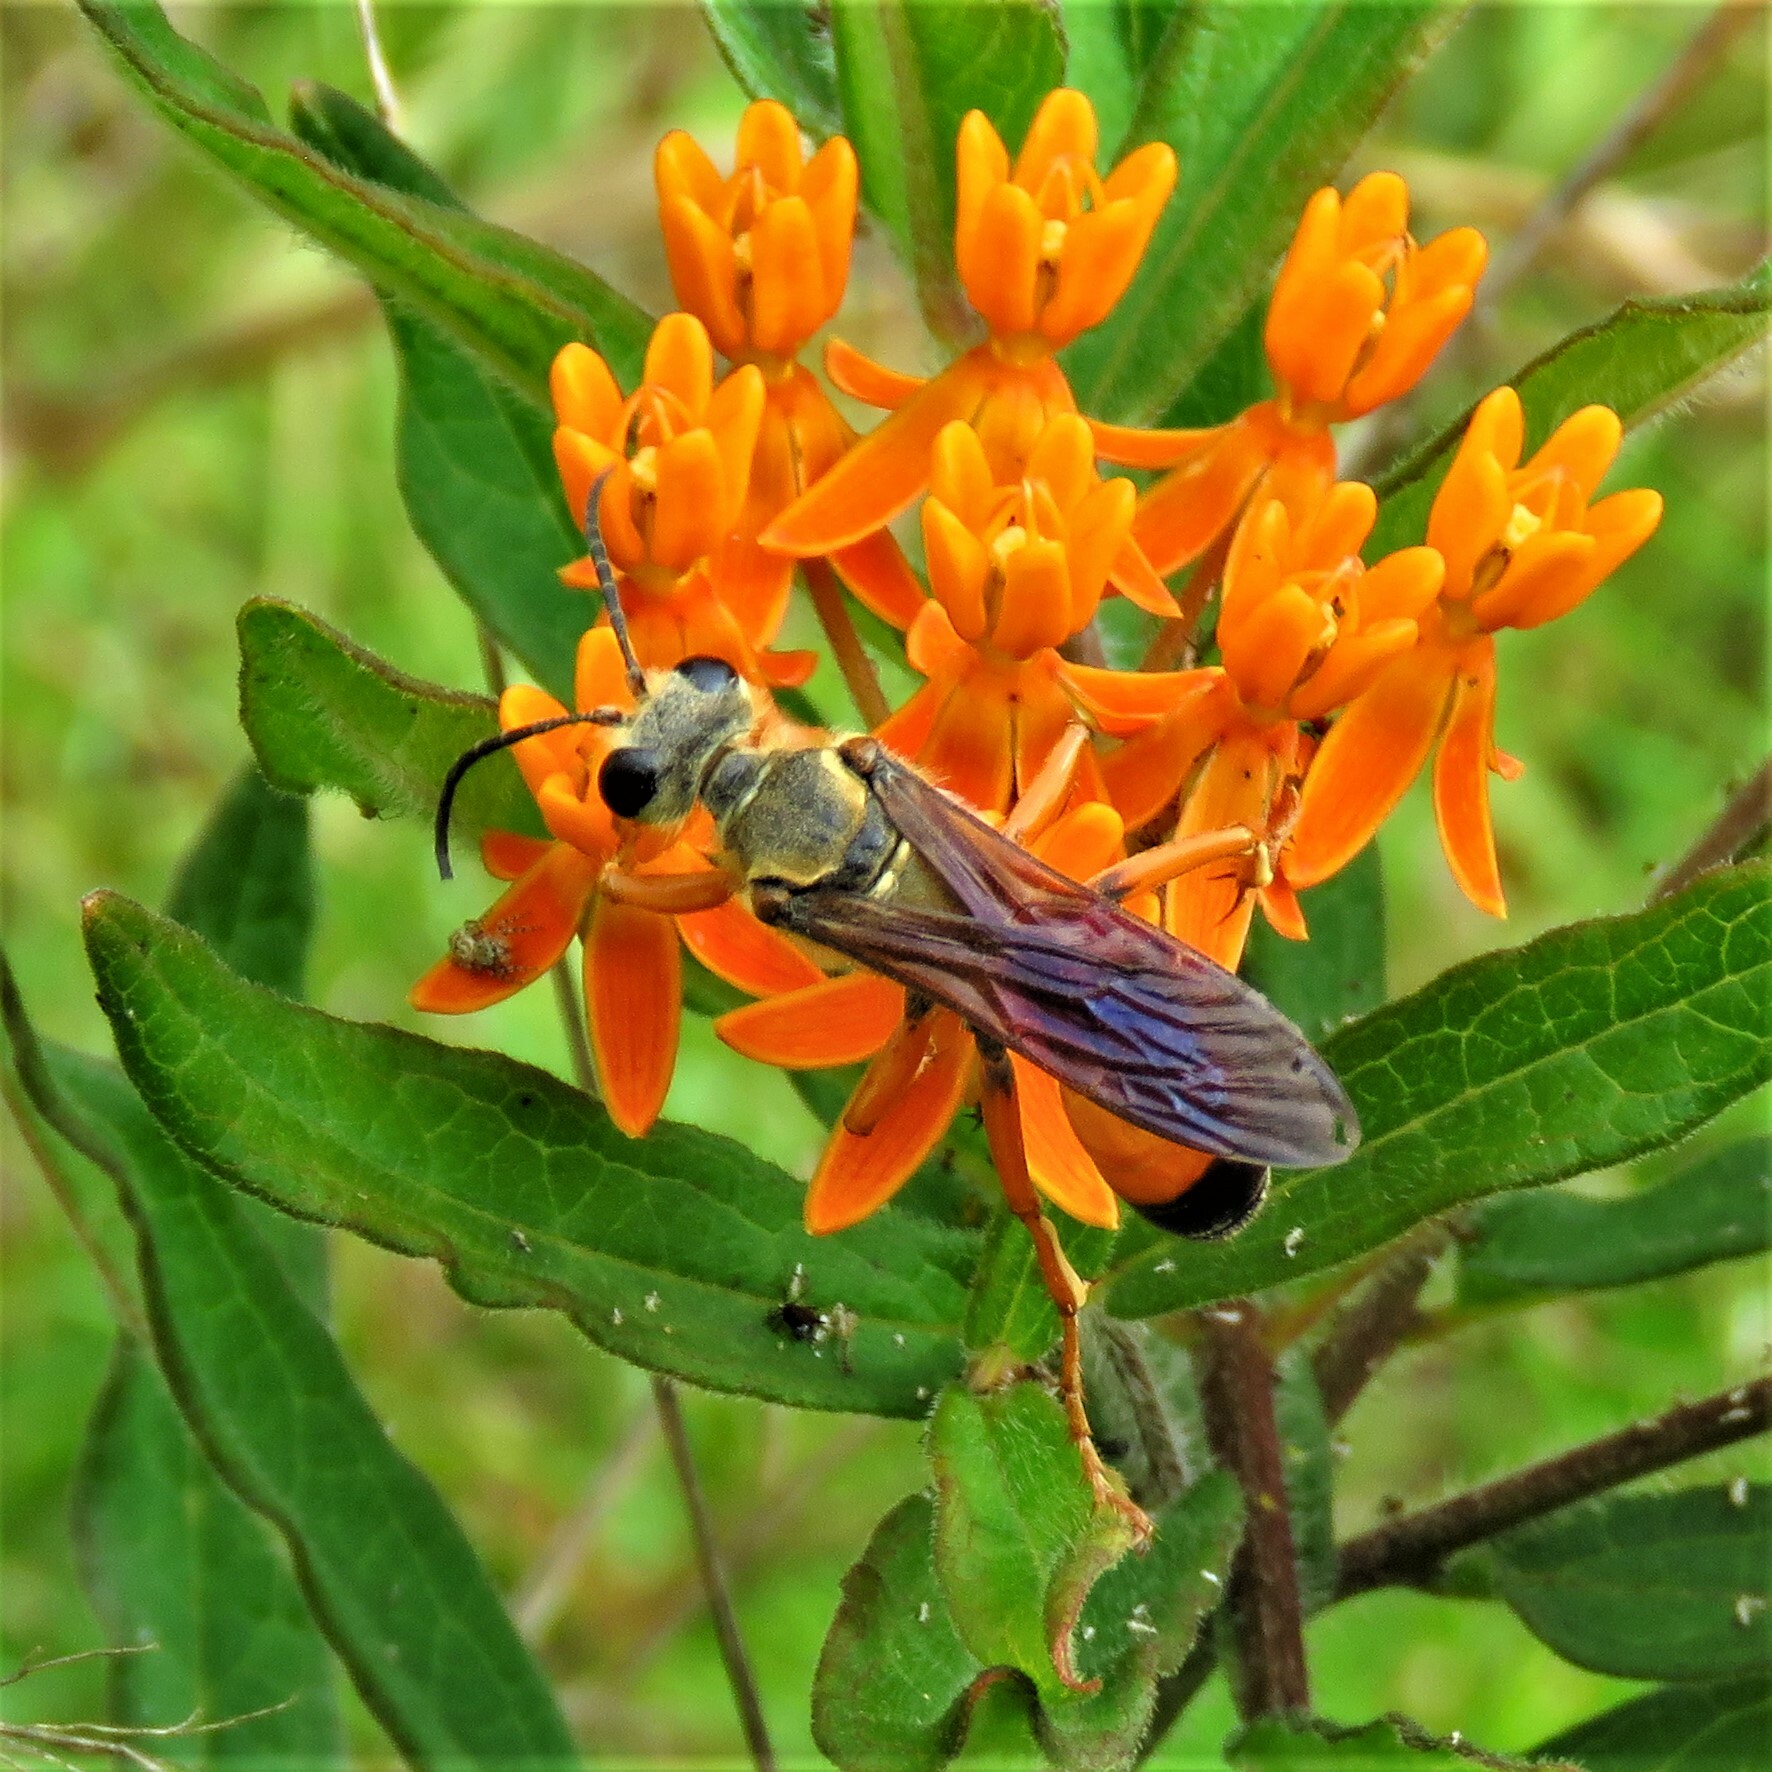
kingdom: Animalia
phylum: Arthropoda
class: Insecta
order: Hymenoptera
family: Sphecidae
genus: Sphex
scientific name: Sphex ichneumoneus
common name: Great golden digger wasp
